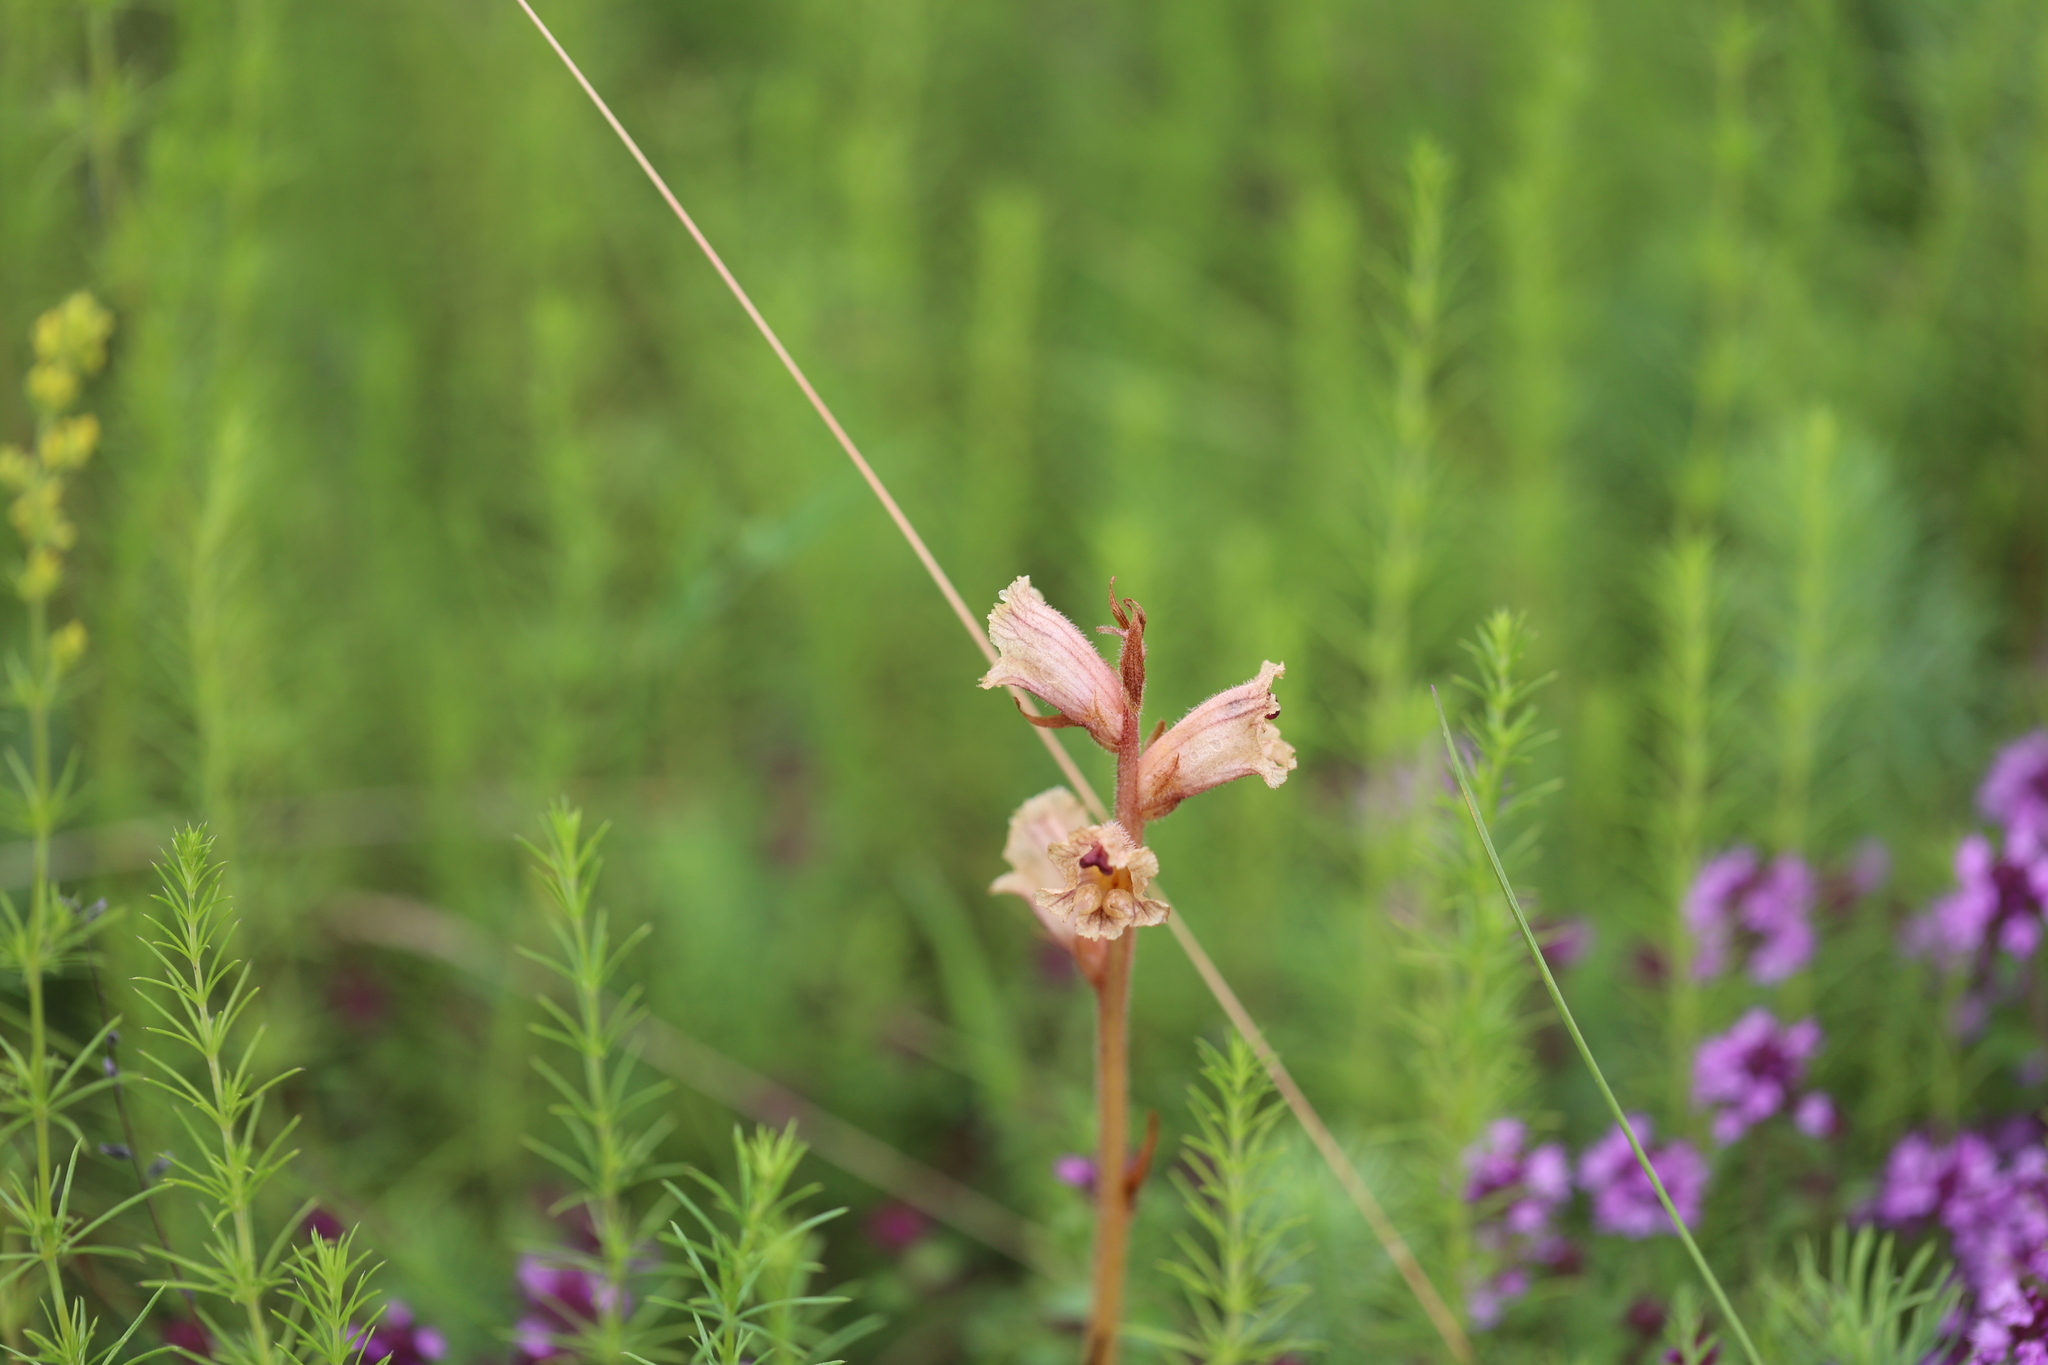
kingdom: Plantae
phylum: Tracheophyta
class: Magnoliopsida
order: Lamiales
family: Orobanchaceae
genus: Orobanche
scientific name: Orobanche alba
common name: Thyme broomrape
